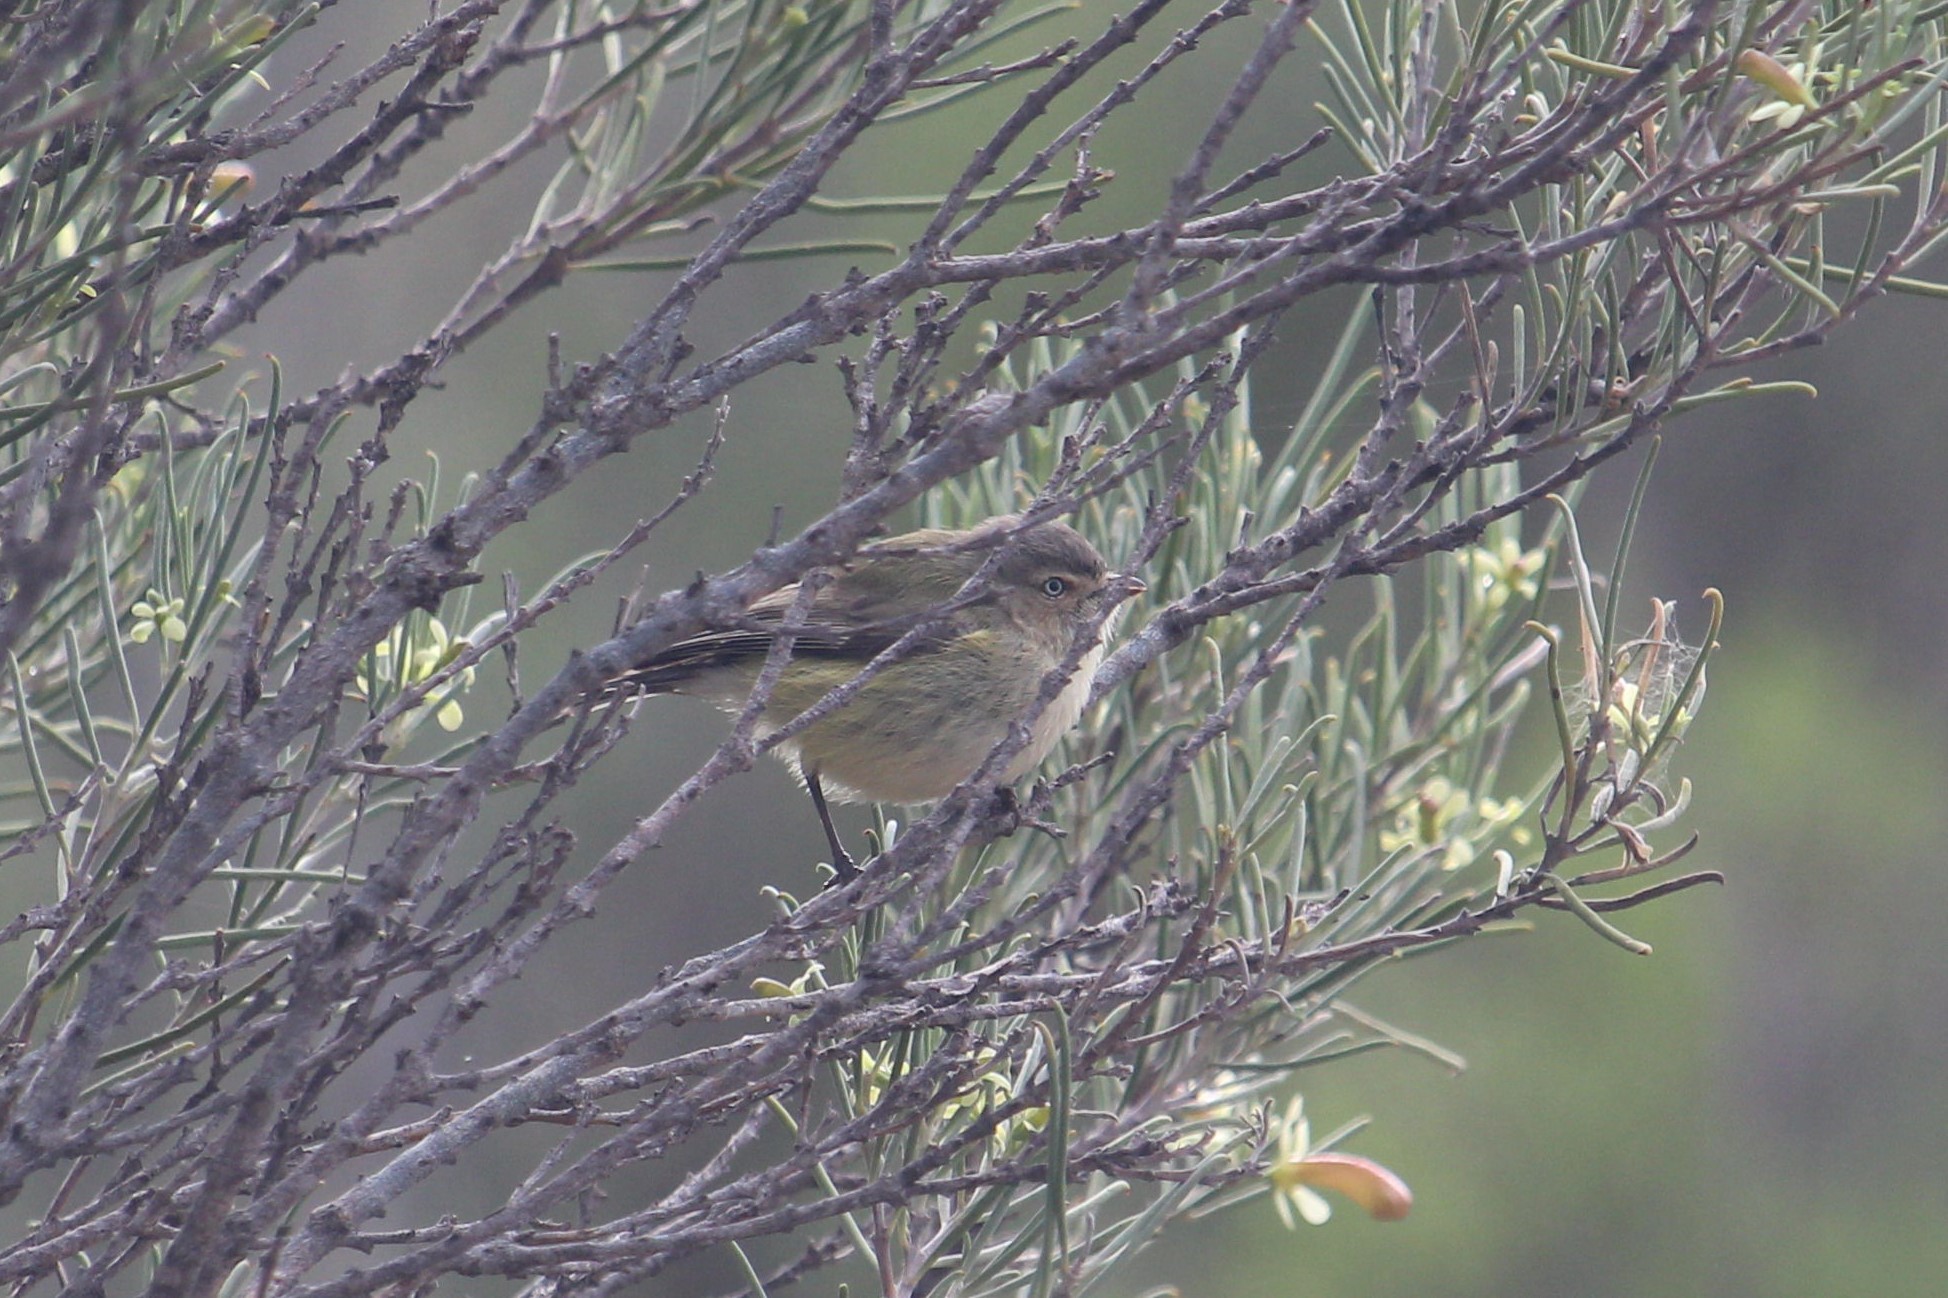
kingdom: Animalia
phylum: Chordata
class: Aves
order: Passeriformes
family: Acanthizidae
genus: Smicrornis
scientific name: Smicrornis brevirostris
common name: Weebill
